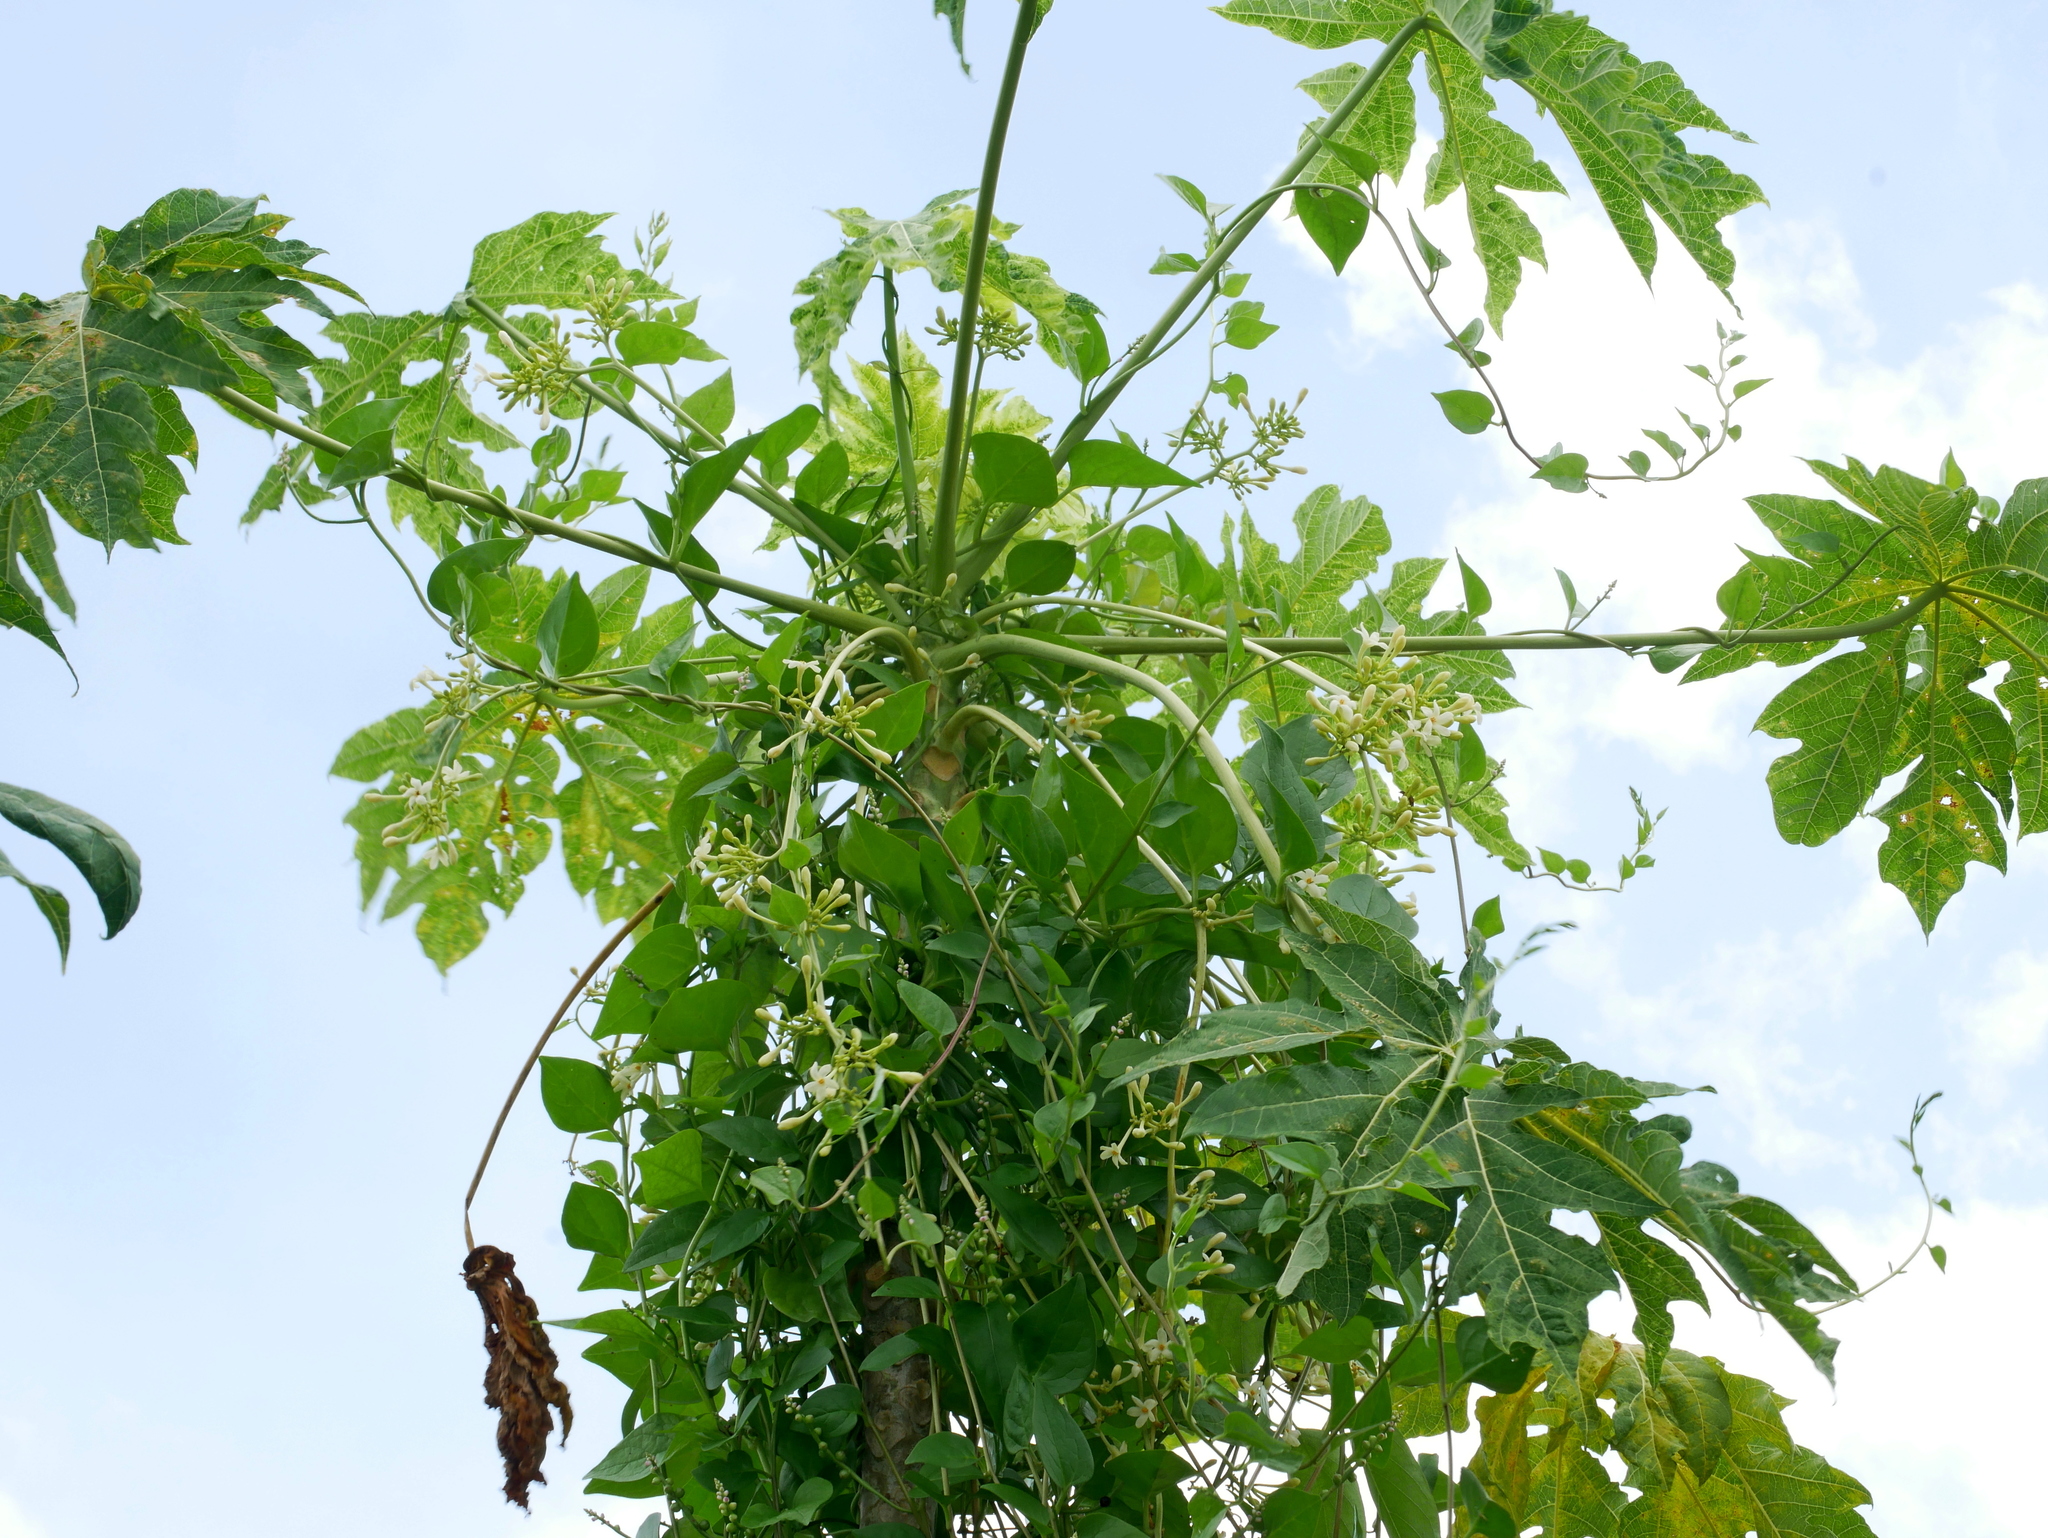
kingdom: Plantae
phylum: Tracheophyta
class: Magnoliopsida
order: Brassicales
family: Caricaceae
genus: Carica
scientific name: Carica papaya
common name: Papaya
